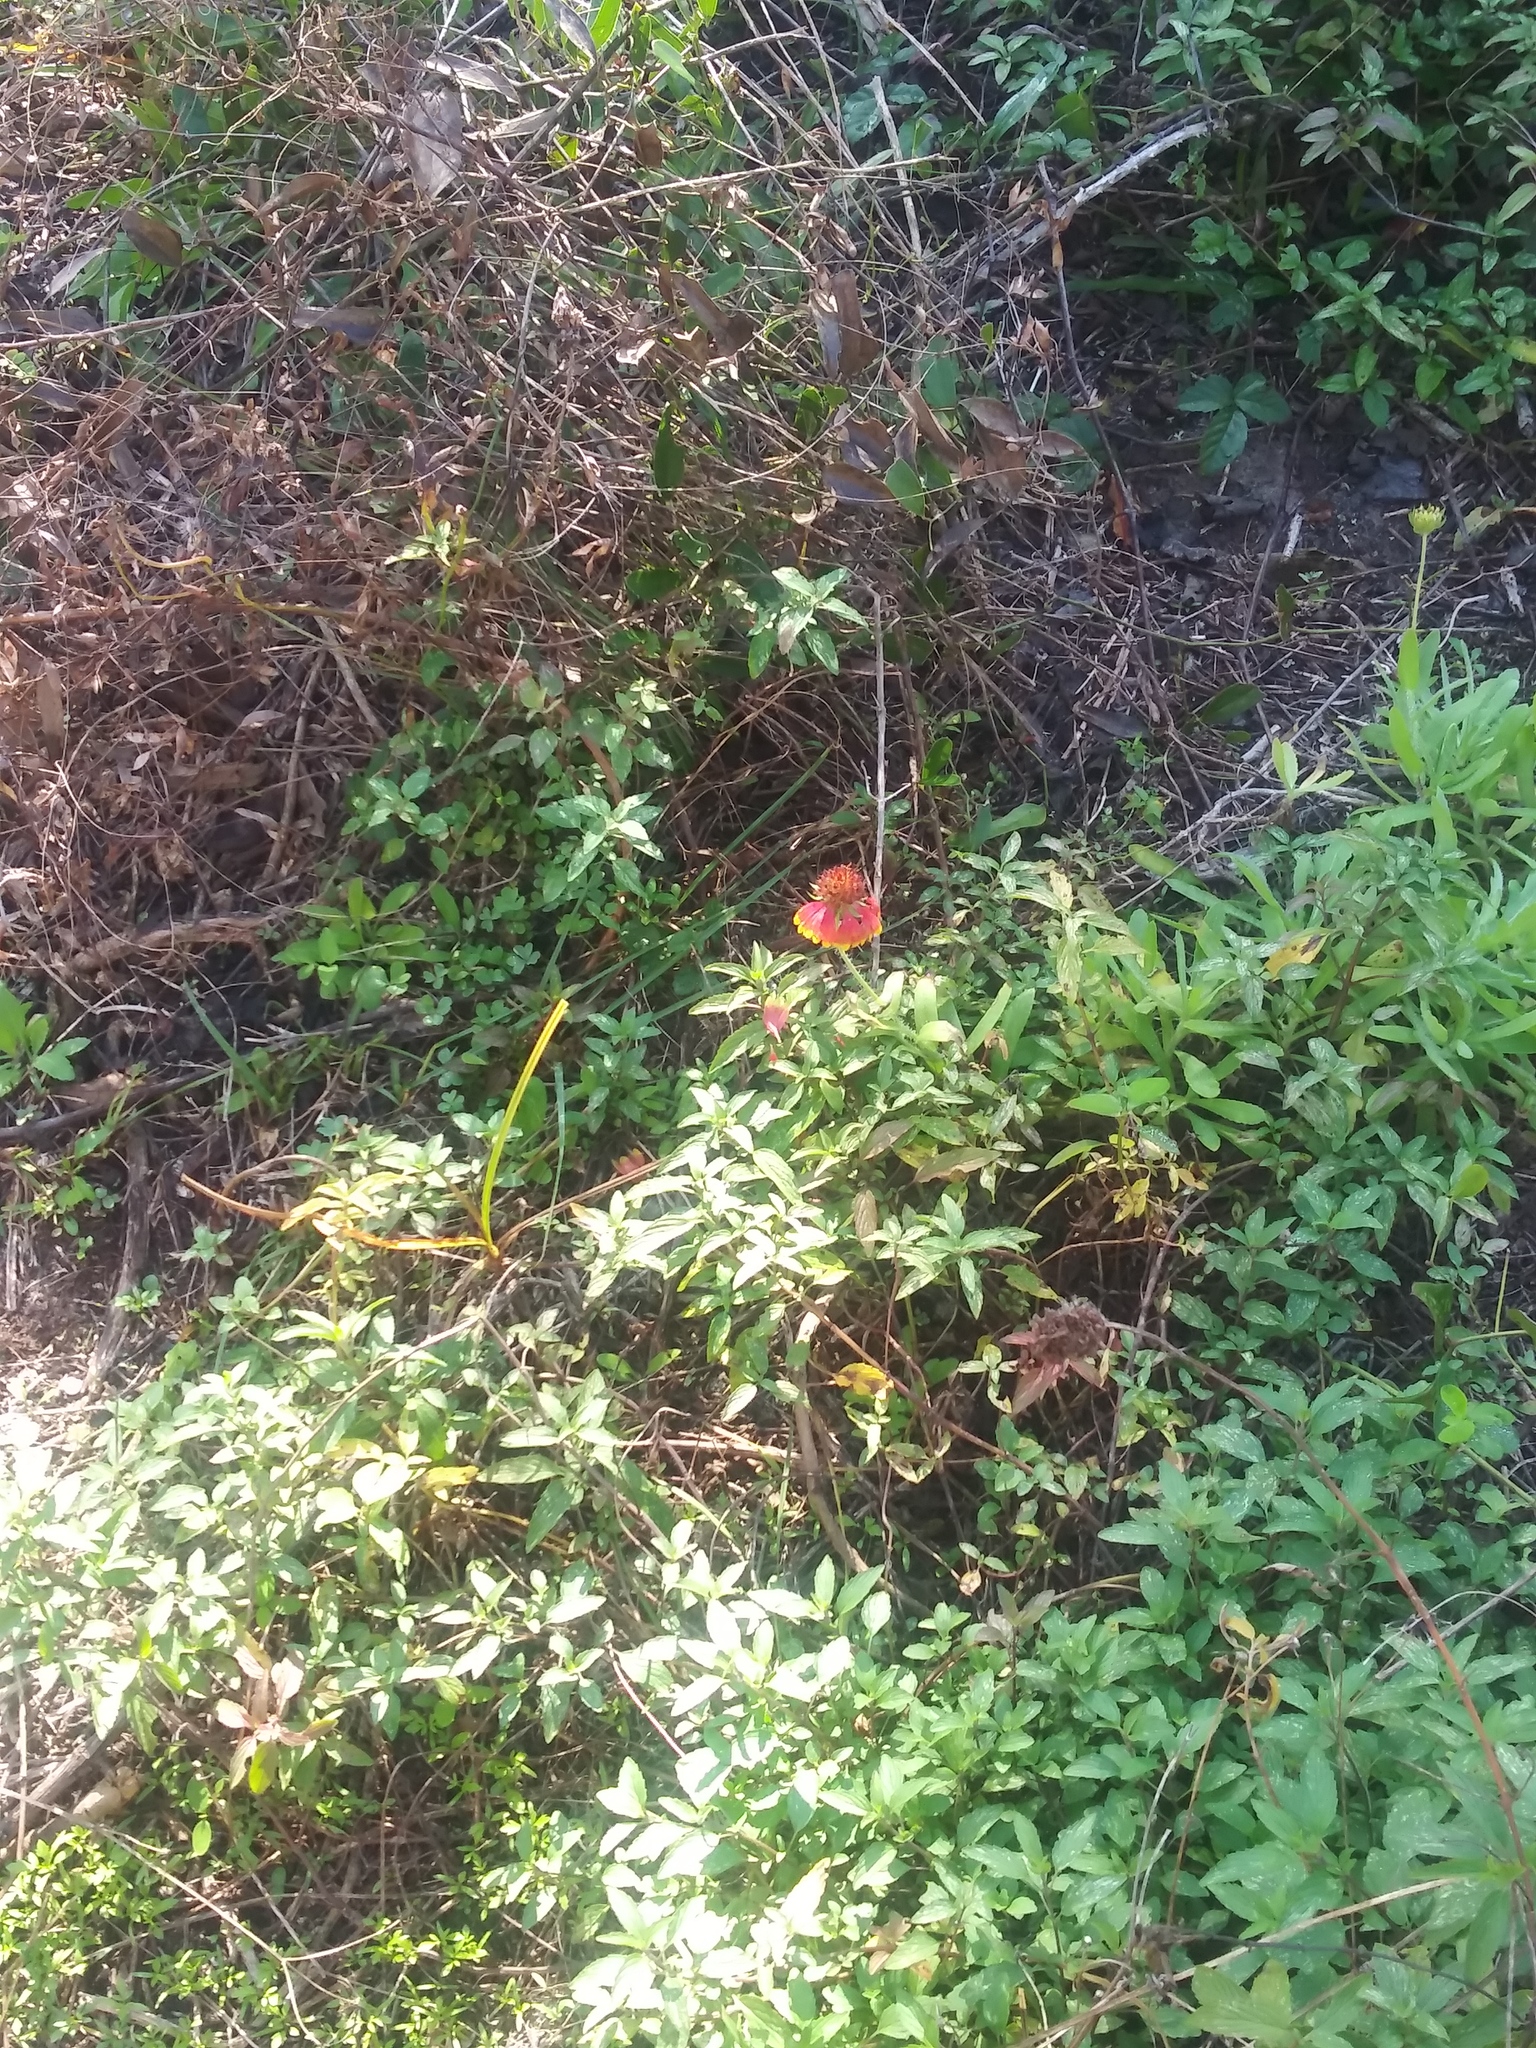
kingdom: Plantae
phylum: Tracheophyta
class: Magnoliopsida
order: Asterales
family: Asteraceae
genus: Gaillardia
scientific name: Gaillardia pulchella
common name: Firewheel
